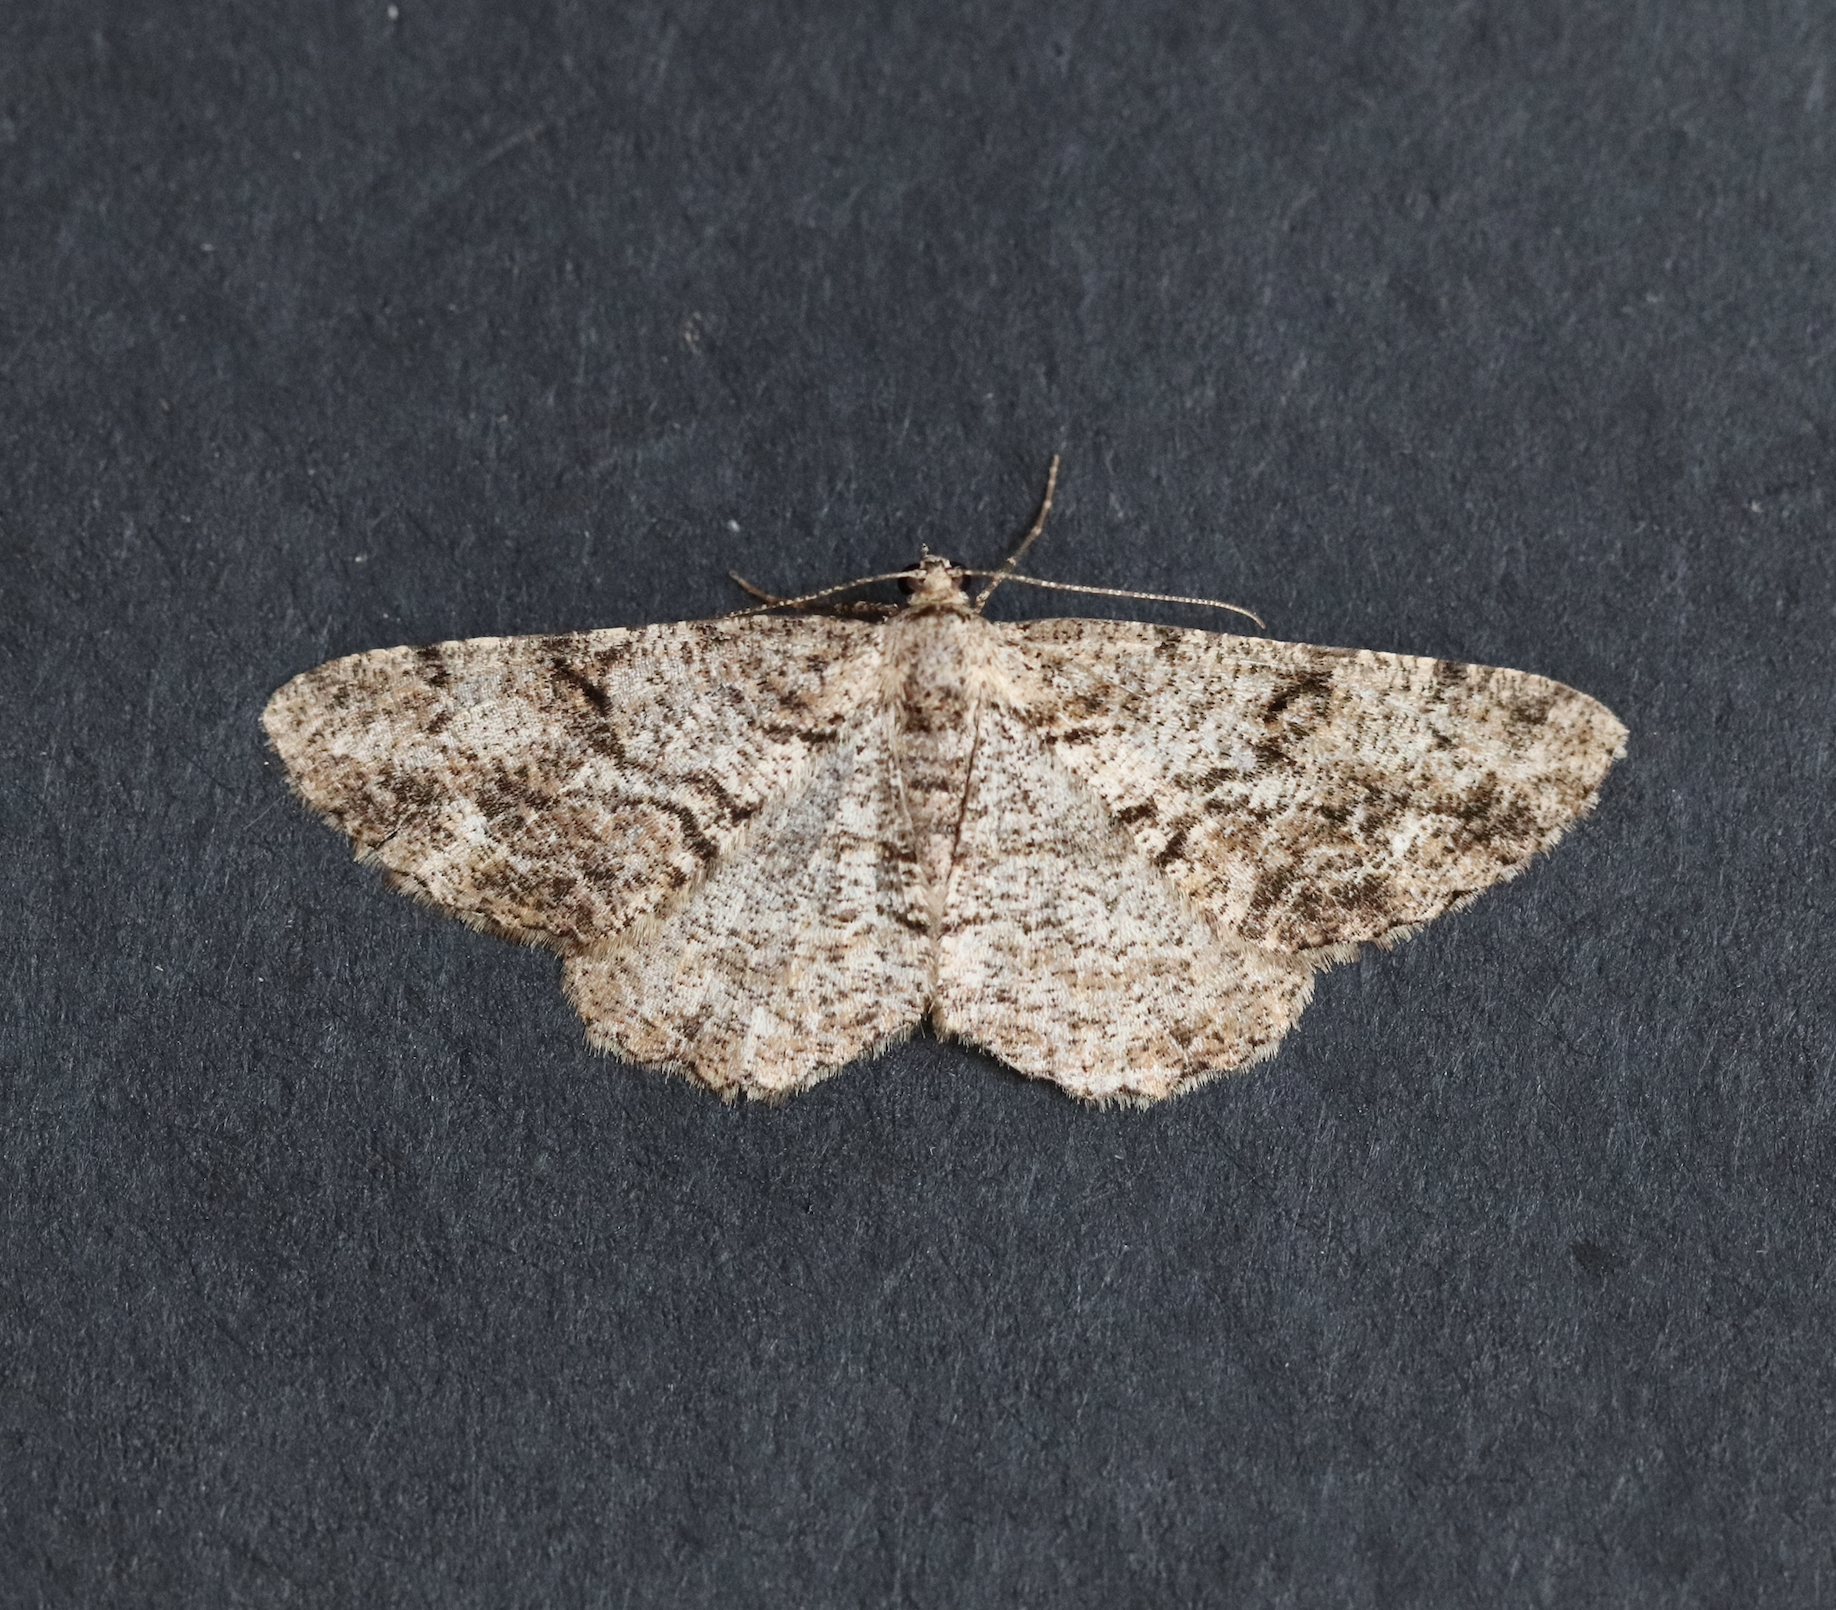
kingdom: Animalia
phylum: Arthropoda
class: Insecta
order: Lepidoptera
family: Geometridae
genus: Peribatodes
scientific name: Peribatodes secundaria
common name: Feathered beauty
